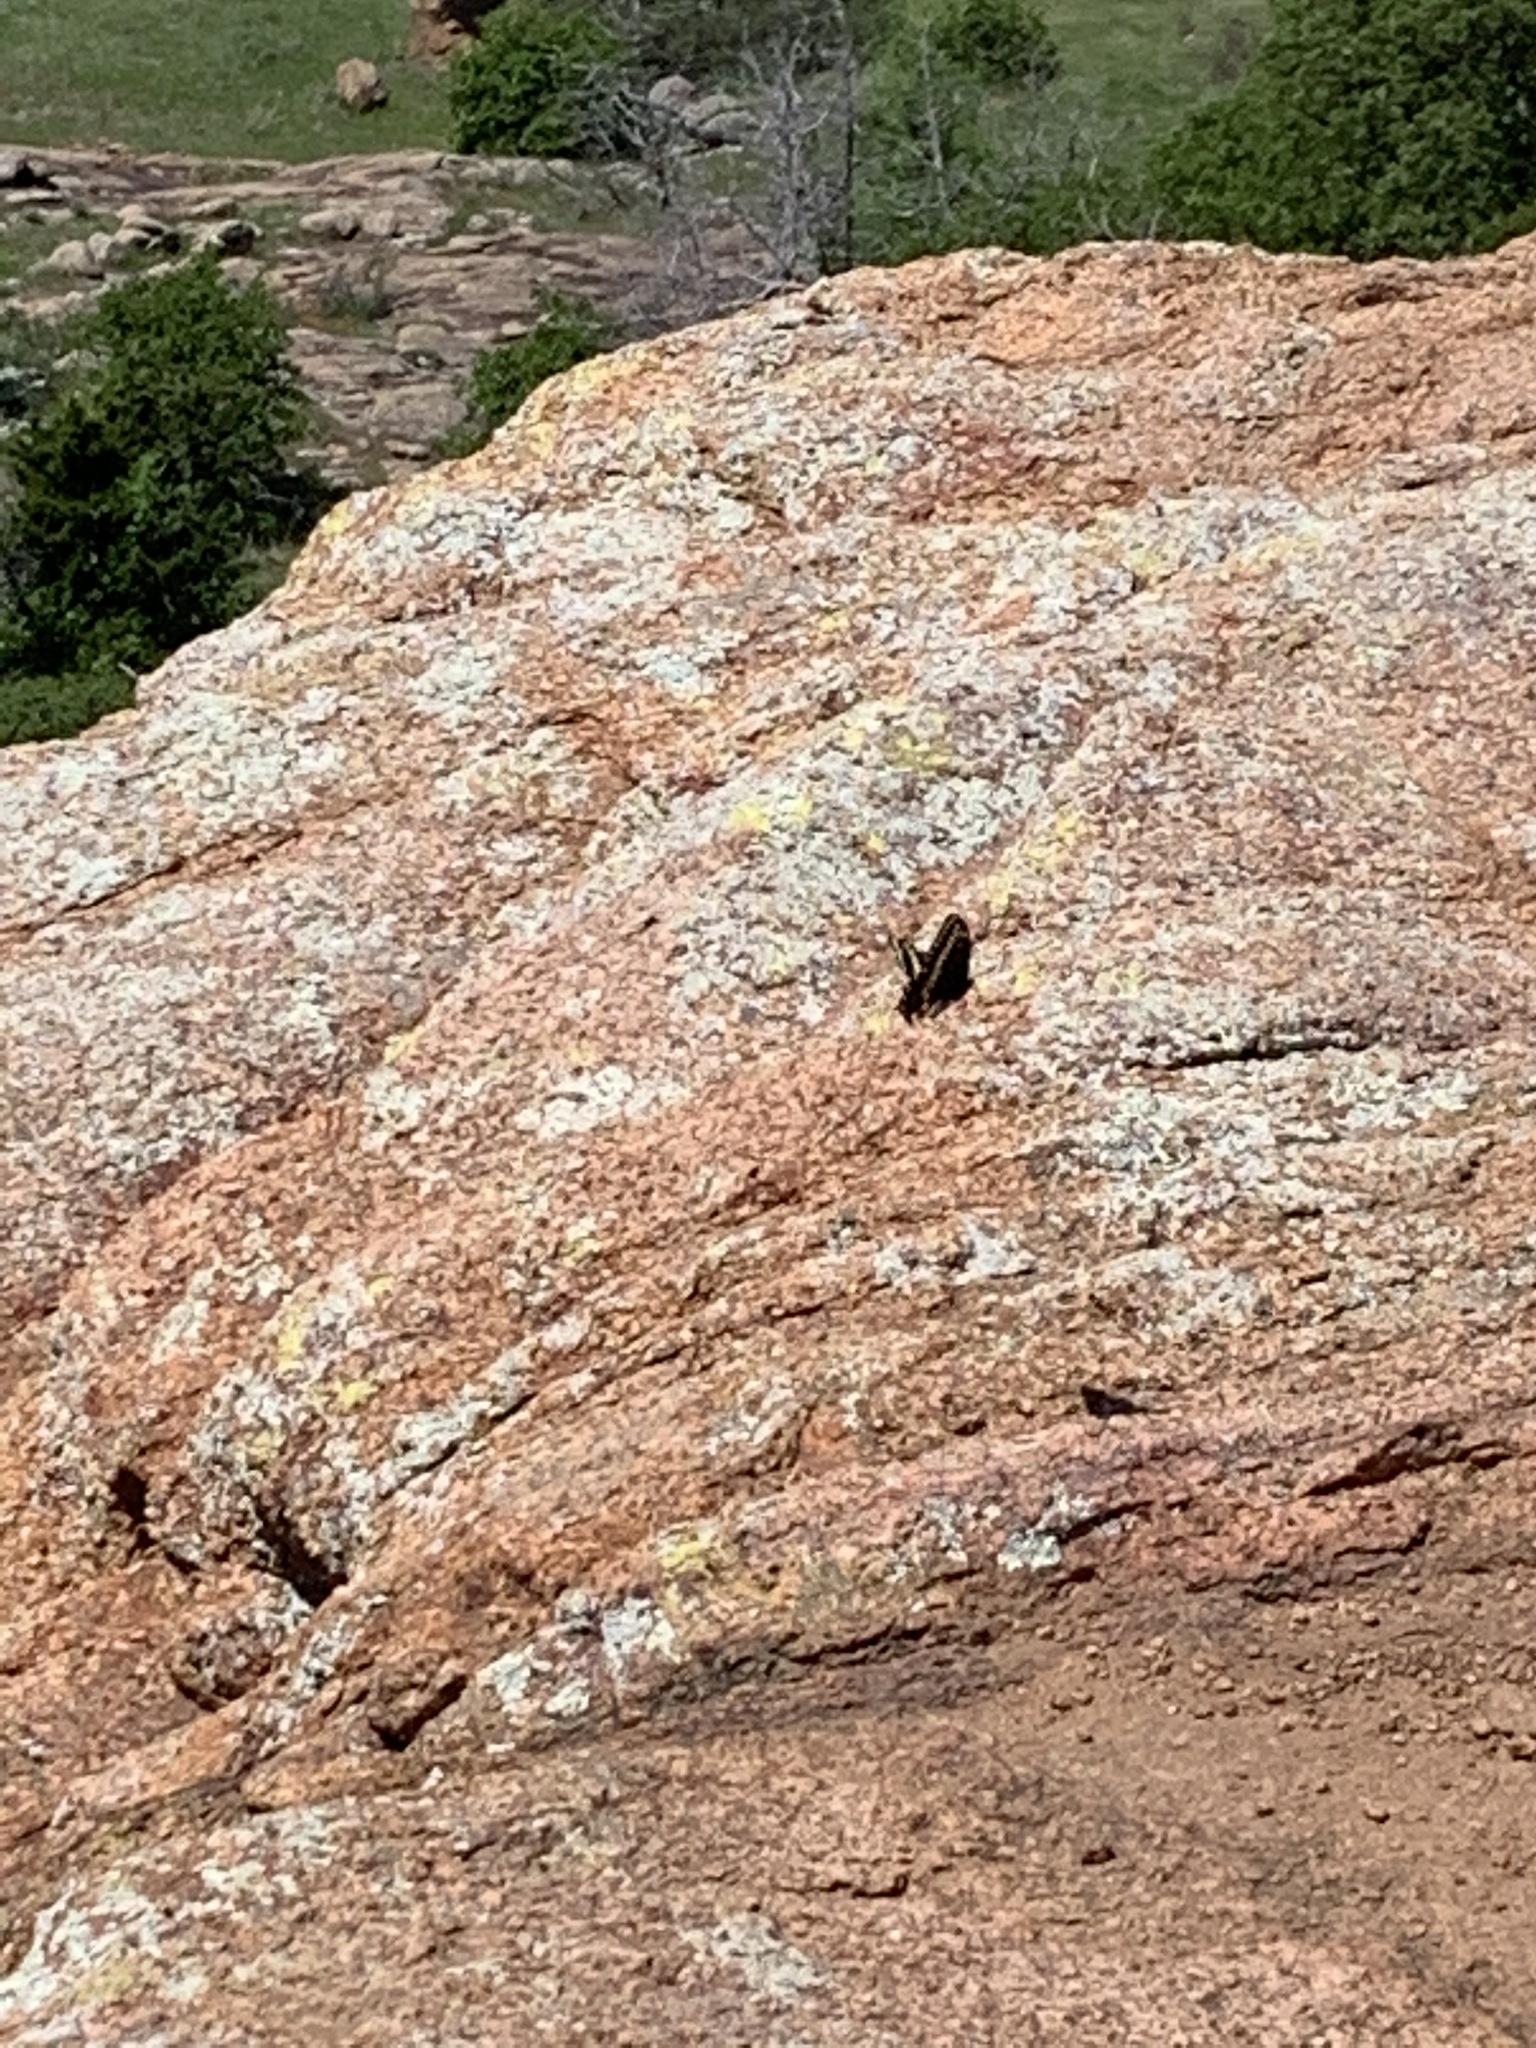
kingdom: Animalia
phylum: Arthropoda
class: Insecta
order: Lepidoptera
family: Papilionidae
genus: Papilio
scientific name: Papilio polyxenes
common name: Black swallowtail
